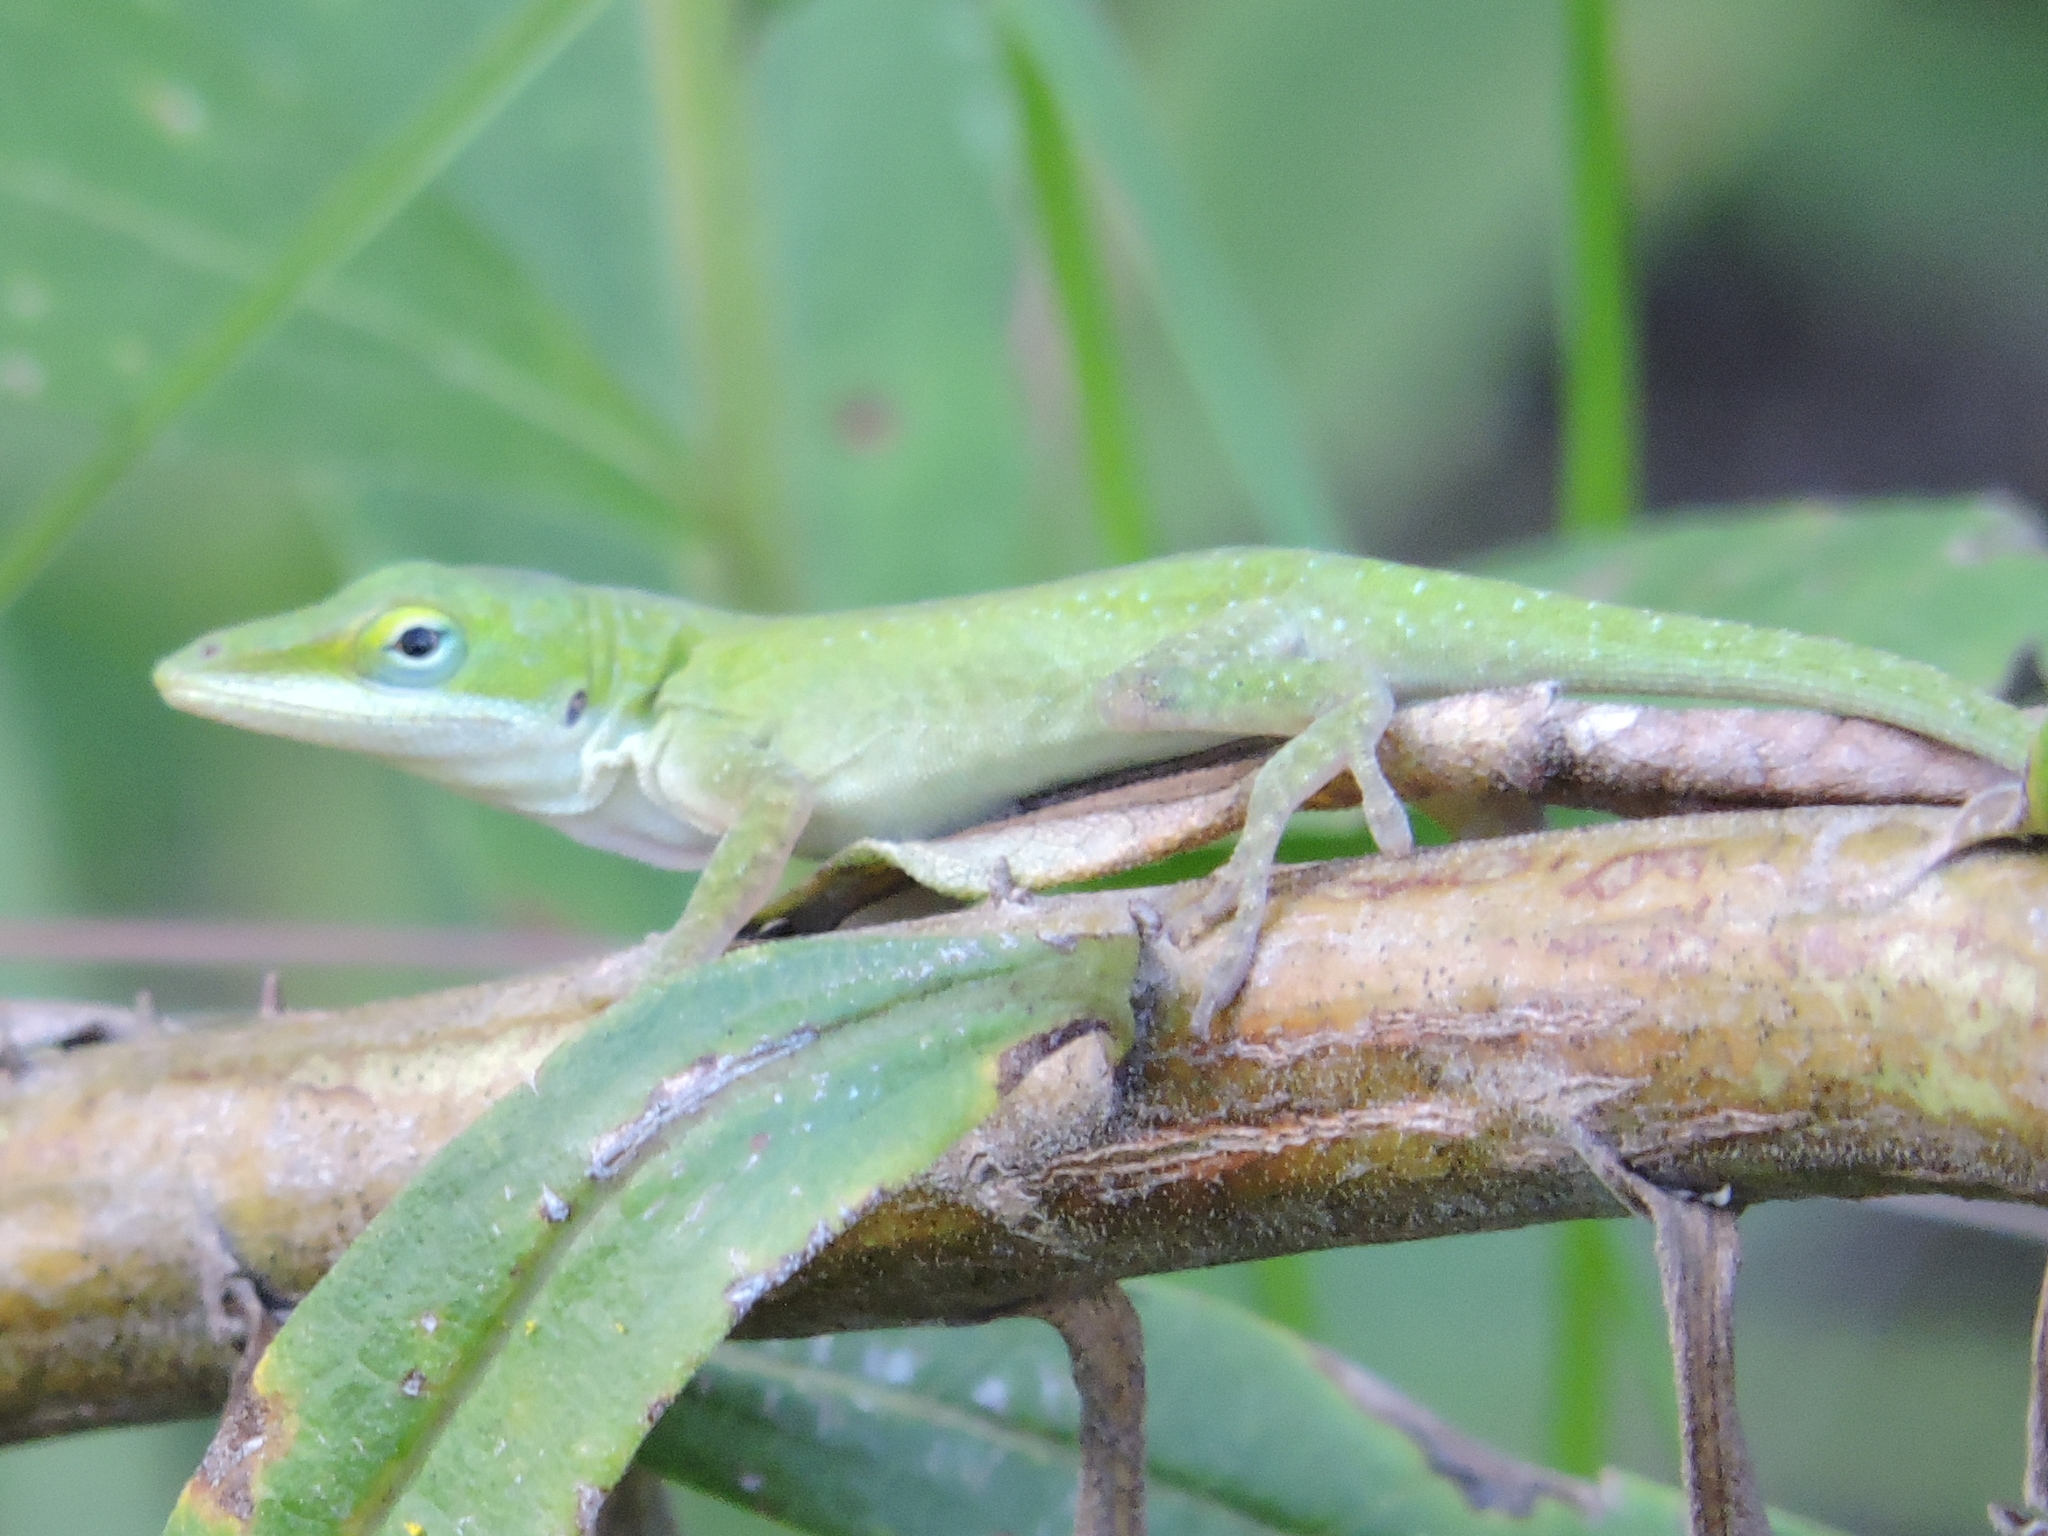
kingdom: Animalia
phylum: Chordata
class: Squamata
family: Dactyloidae
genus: Anolis
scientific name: Anolis carolinensis
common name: Green anole
